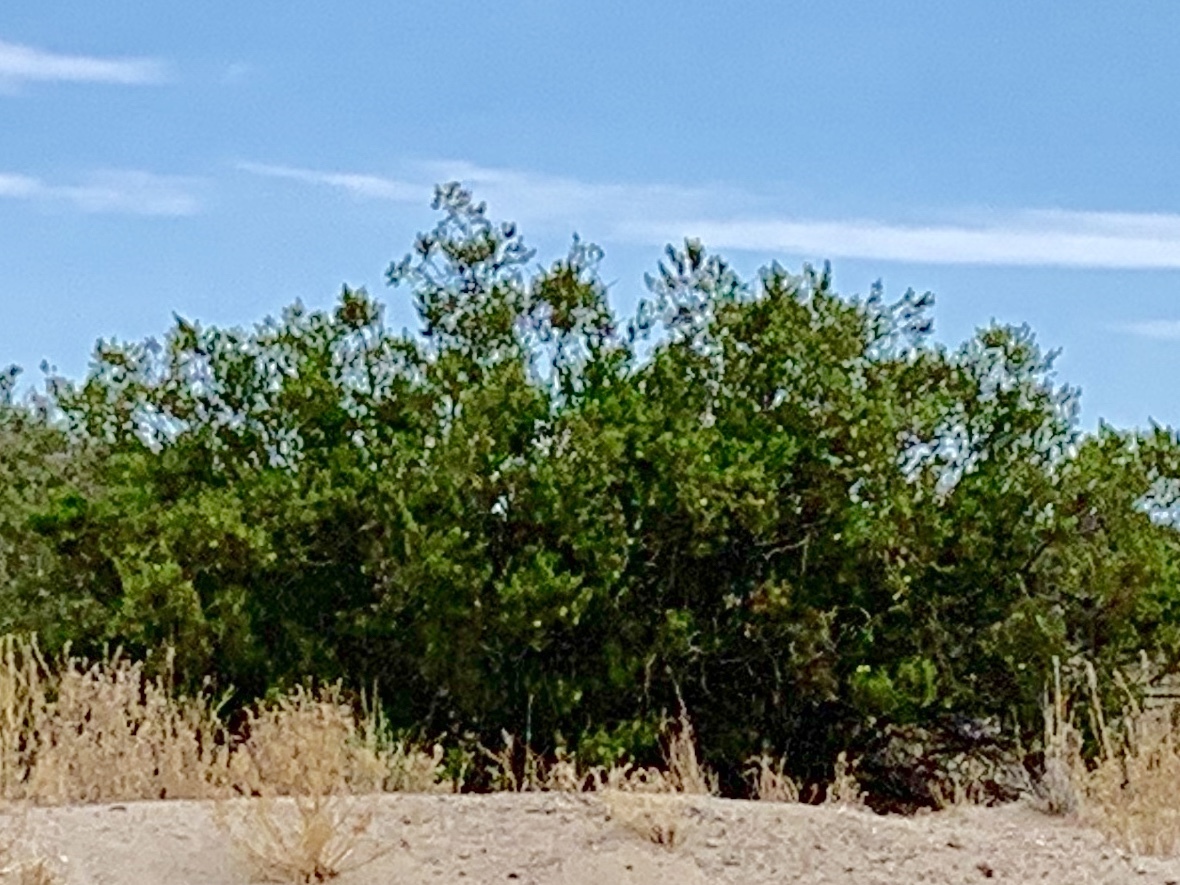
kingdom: Plantae
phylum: Tracheophyta
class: Magnoliopsida
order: Zygophyllales
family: Zygophyllaceae
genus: Larrea
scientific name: Larrea tridentata
